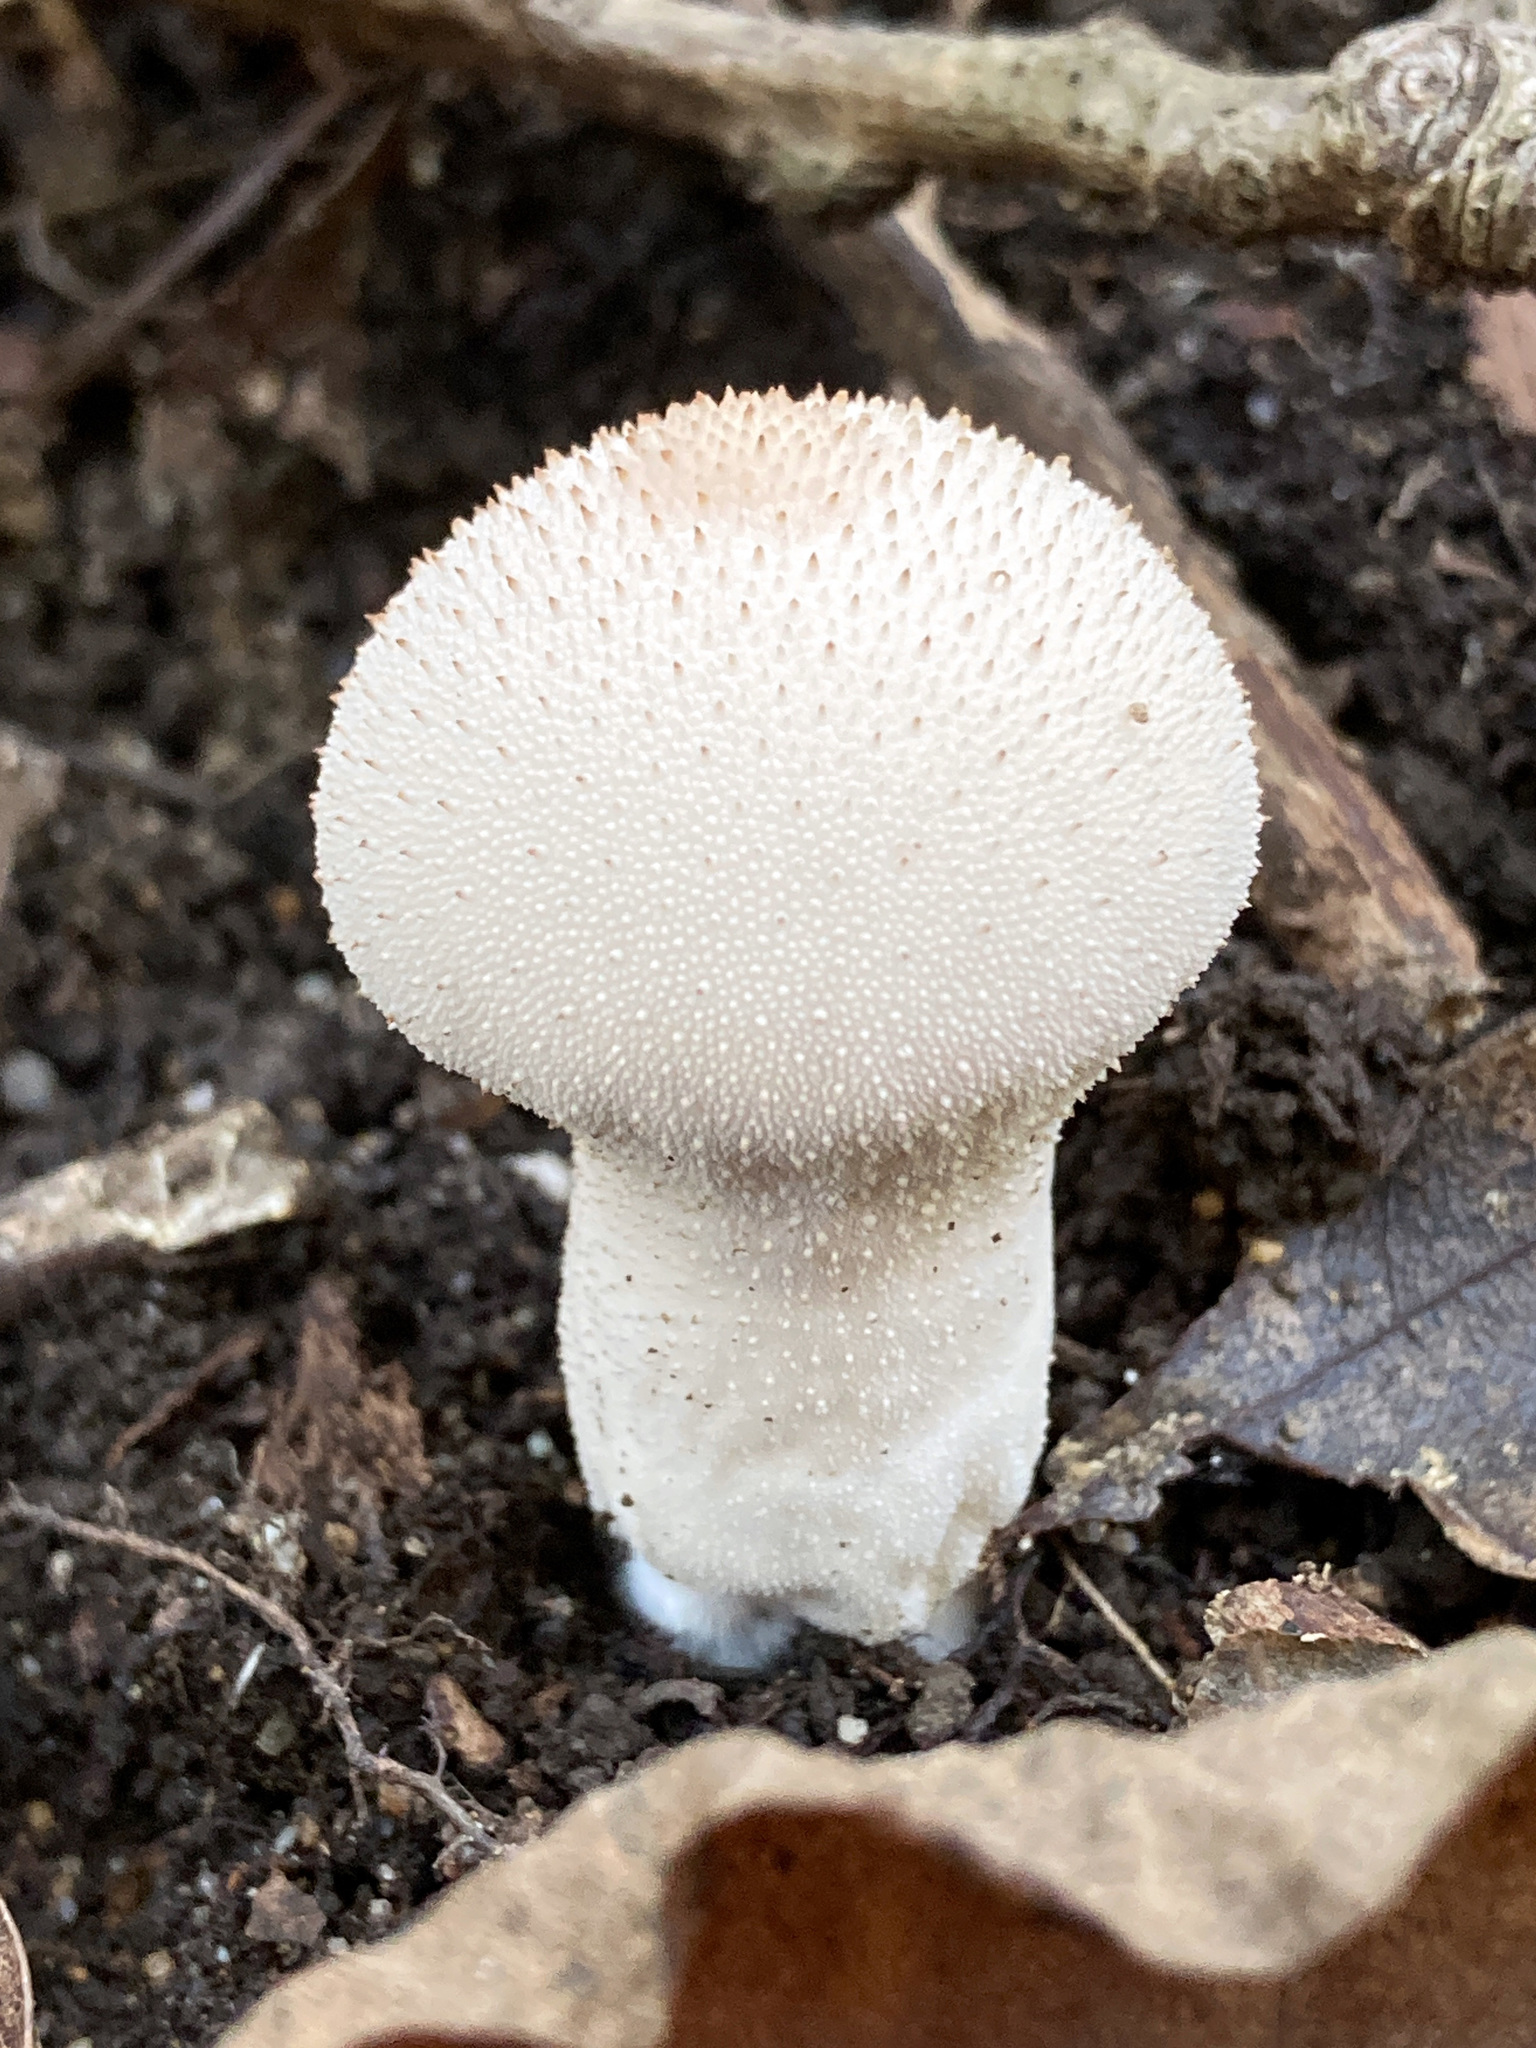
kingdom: Fungi
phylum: Basidiomycota
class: Agaricomycetes
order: Agaricales
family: Lycoperdaceae
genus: Lycoperdon
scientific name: Lycoperdon perlatum
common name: Common puffball
